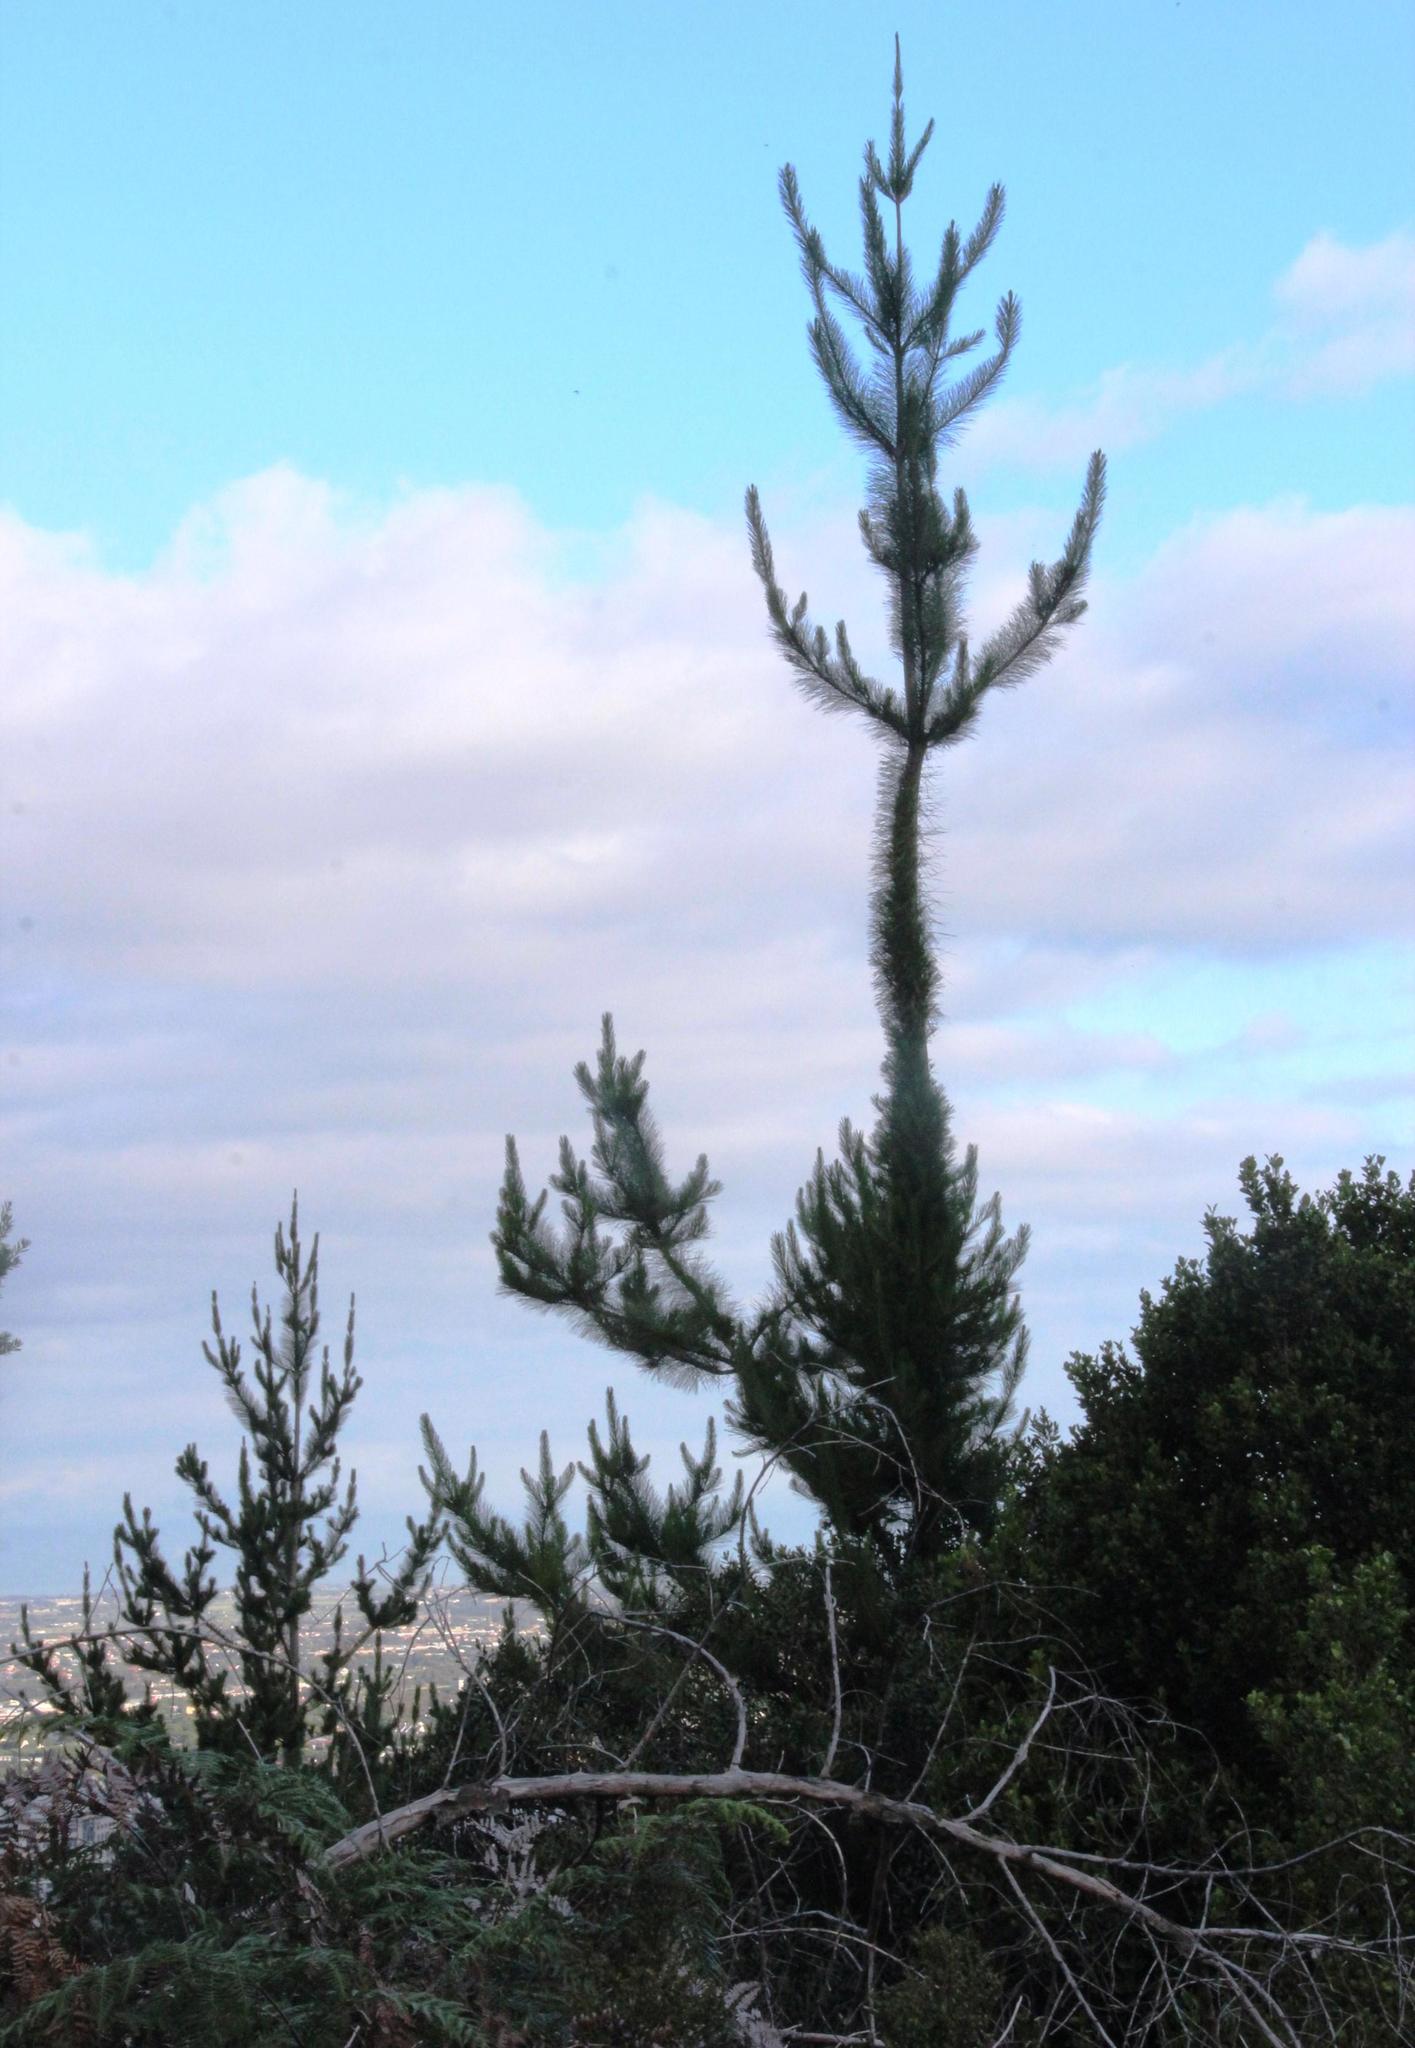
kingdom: Plantae
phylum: Tracheophyta
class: Pinopsida
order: Pinales
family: Pinaceae
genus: Pinus
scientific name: Pinus radiata
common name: Monterey pine
